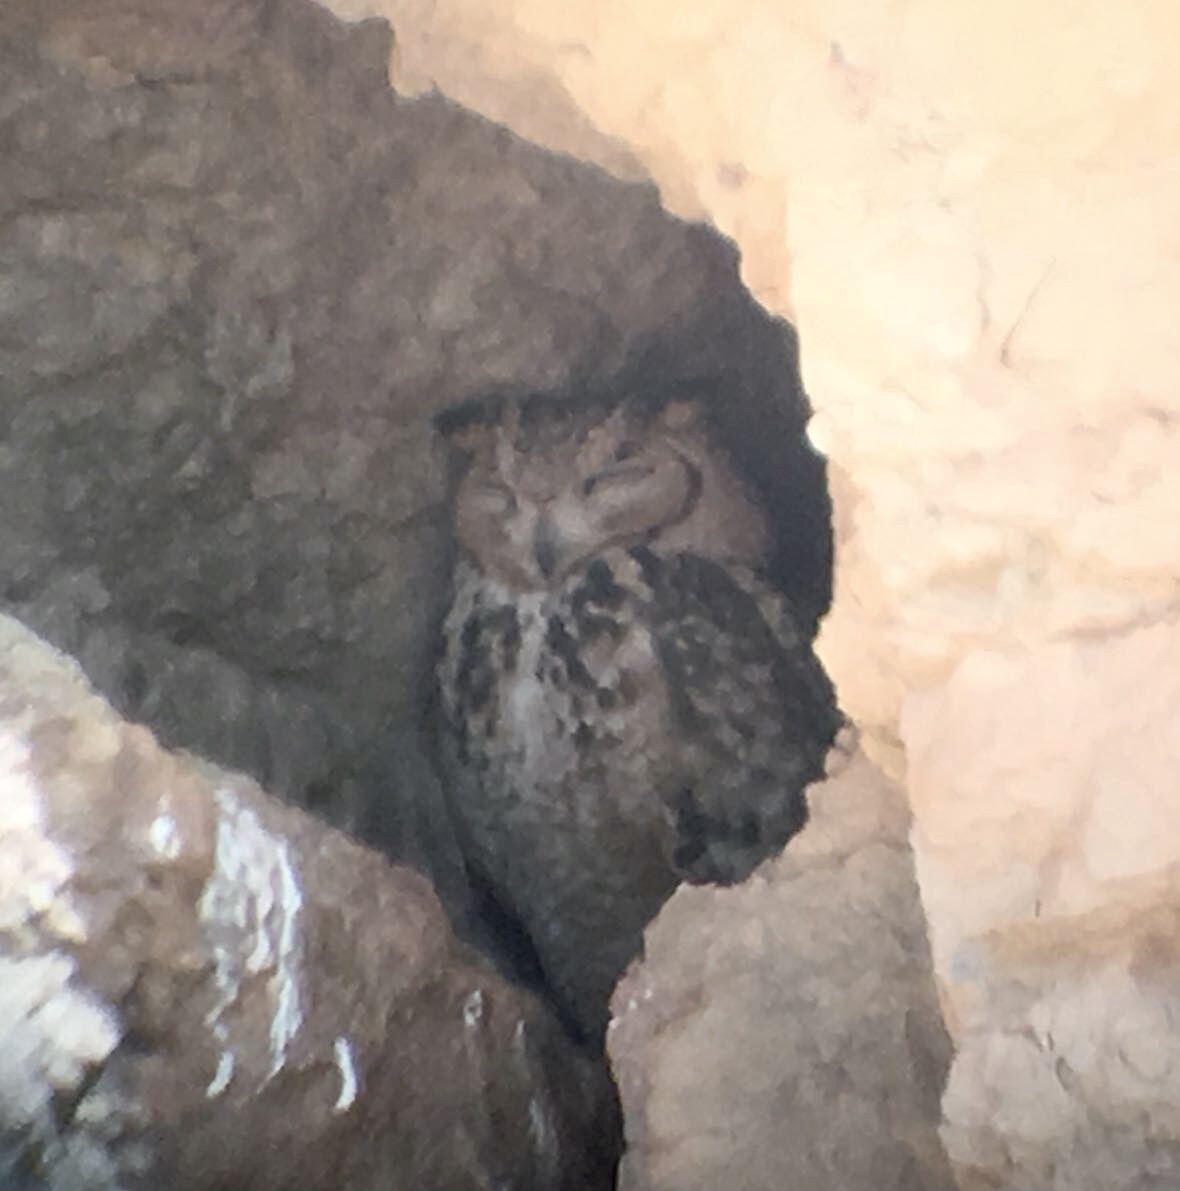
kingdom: Animalia
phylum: Chordata
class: Aves
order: Strigiformes
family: Strigidae
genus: Bubo
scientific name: Bubo ascalaphus
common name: Pharaoh eagle-owl
